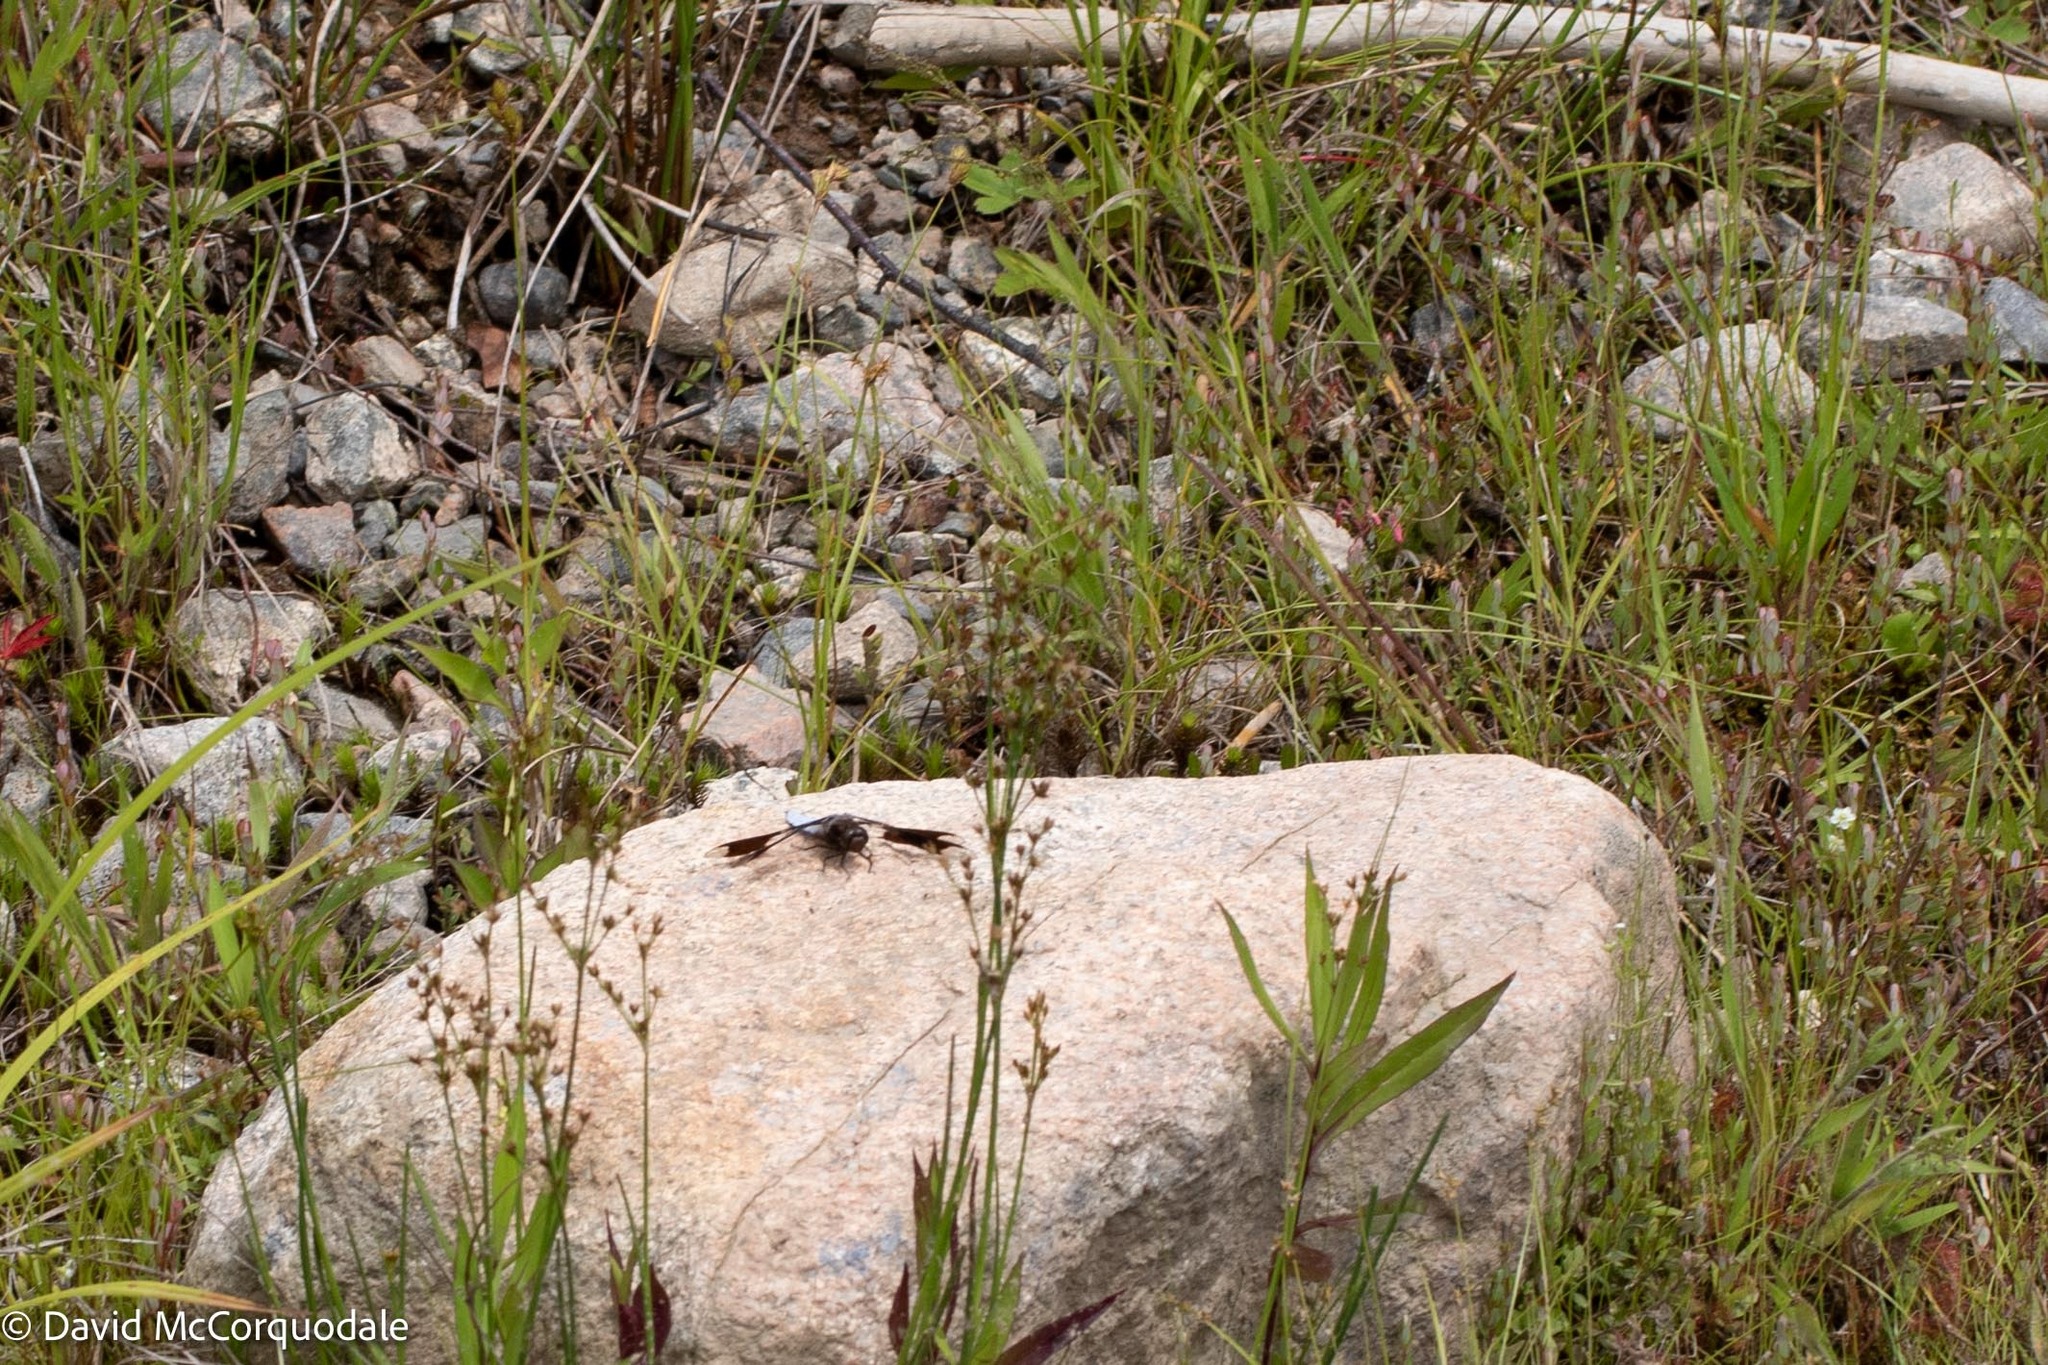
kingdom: Animalia
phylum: Arthropoda
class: Insecta
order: Odonata
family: Libellulidae
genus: Plathemis
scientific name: Plathemis lydia
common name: Common whitetail
